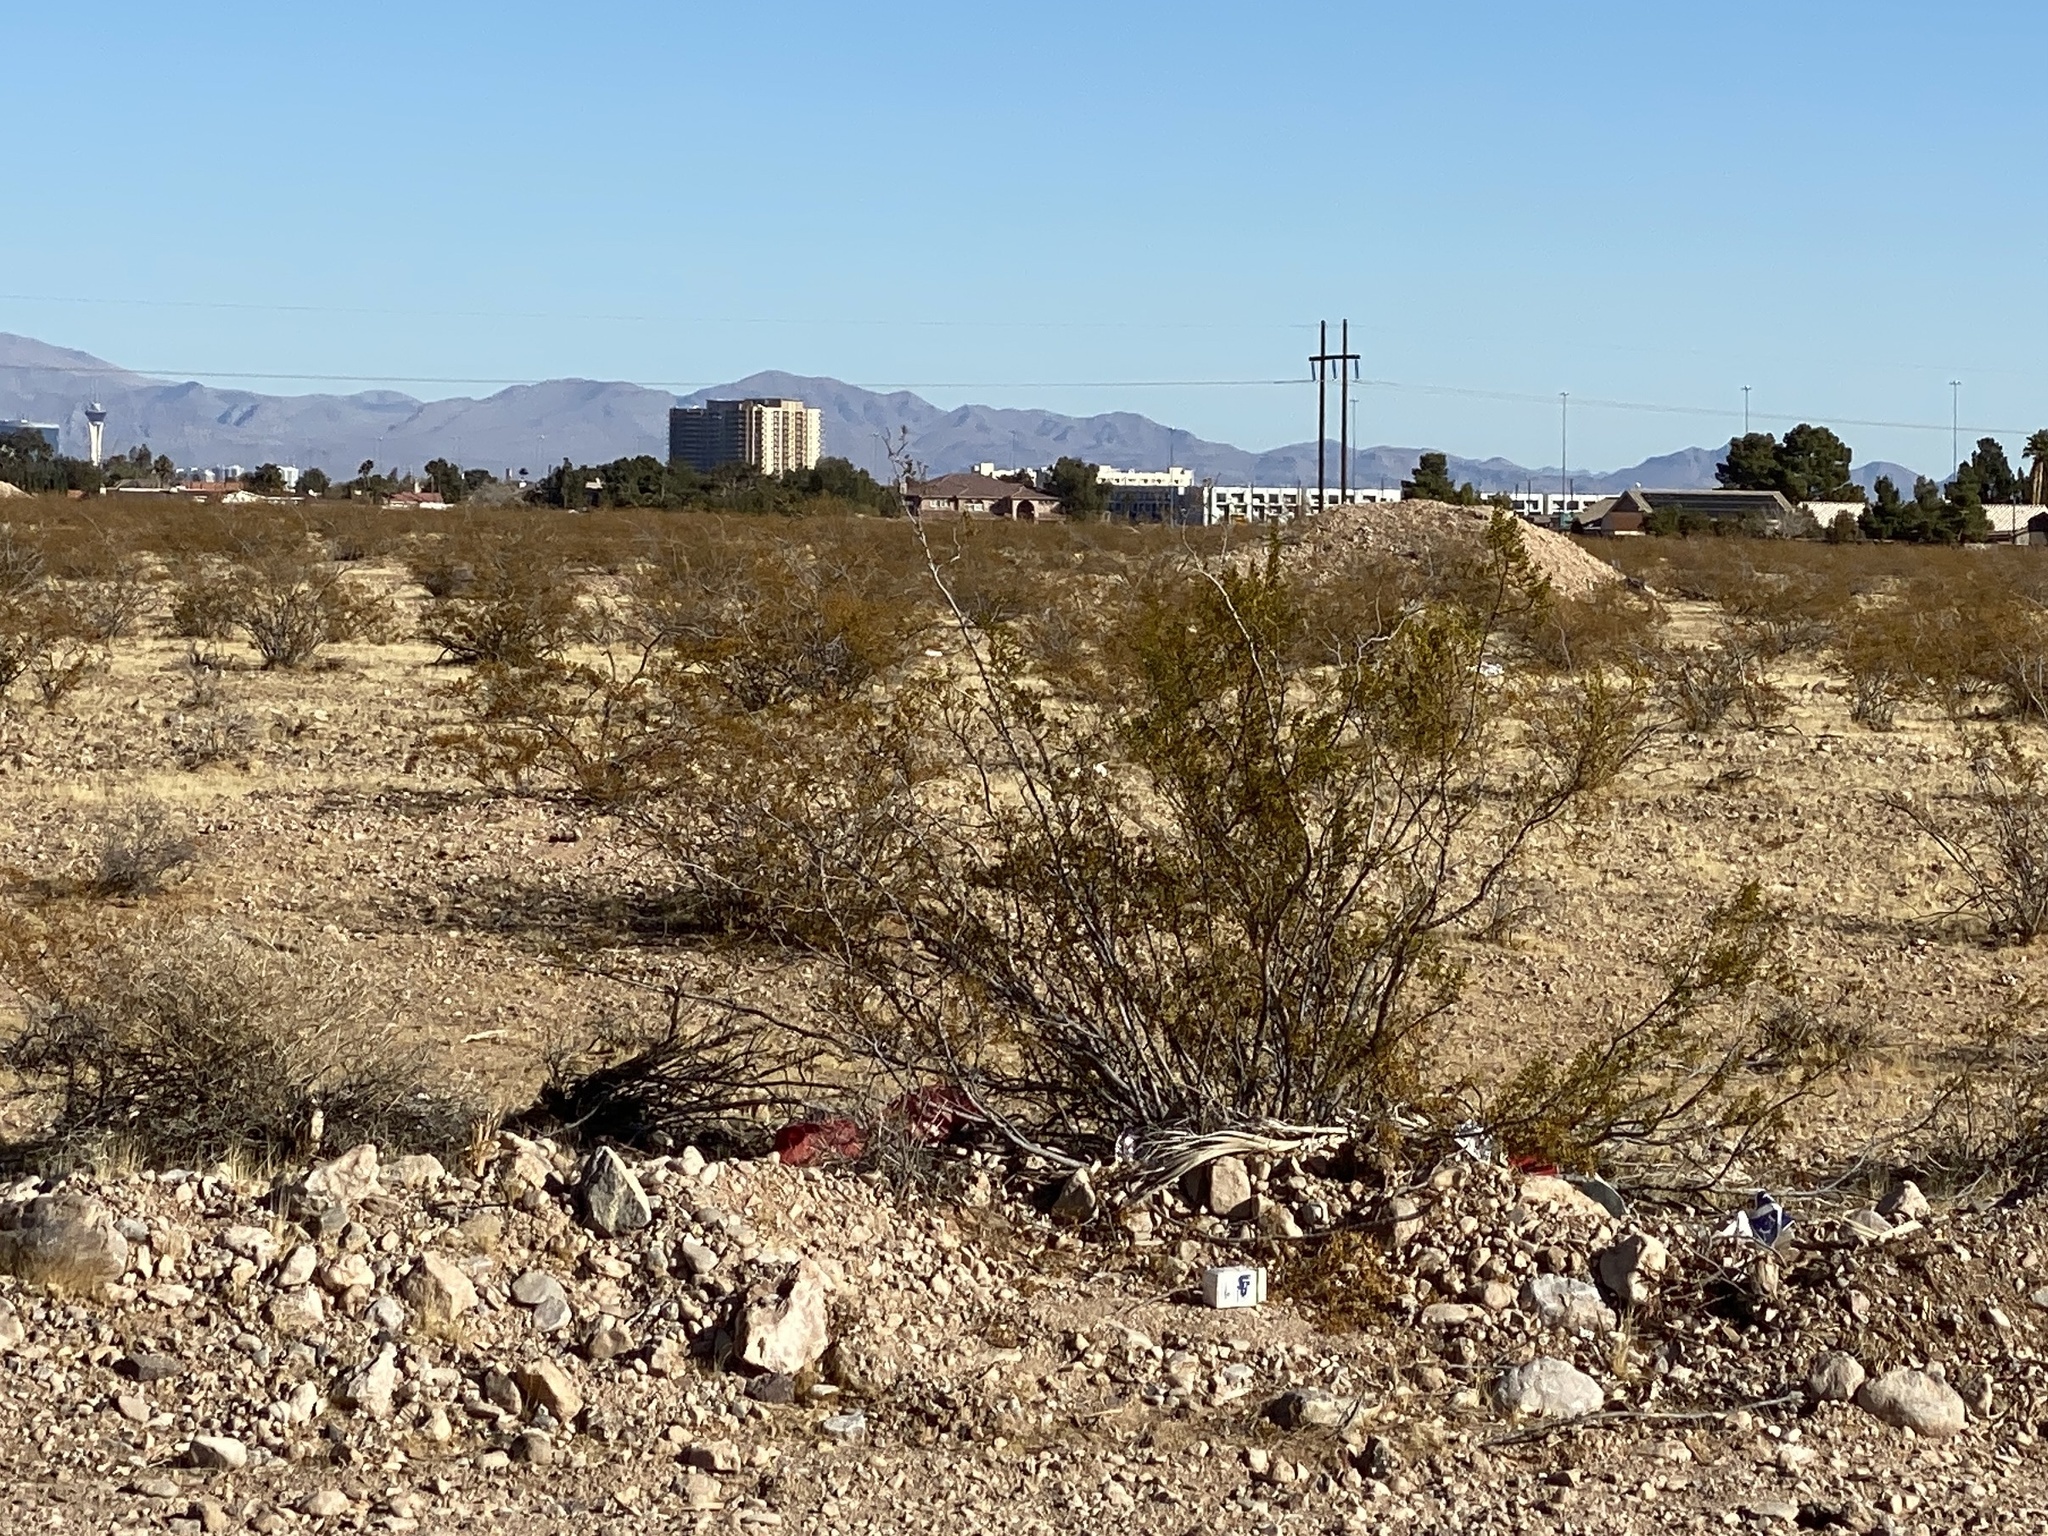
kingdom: Plantae
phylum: Tracheophyta
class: Magnoliopsida
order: Zygophyllales
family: Zygophyllaceae
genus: Larrea
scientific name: Larrea tridentata
